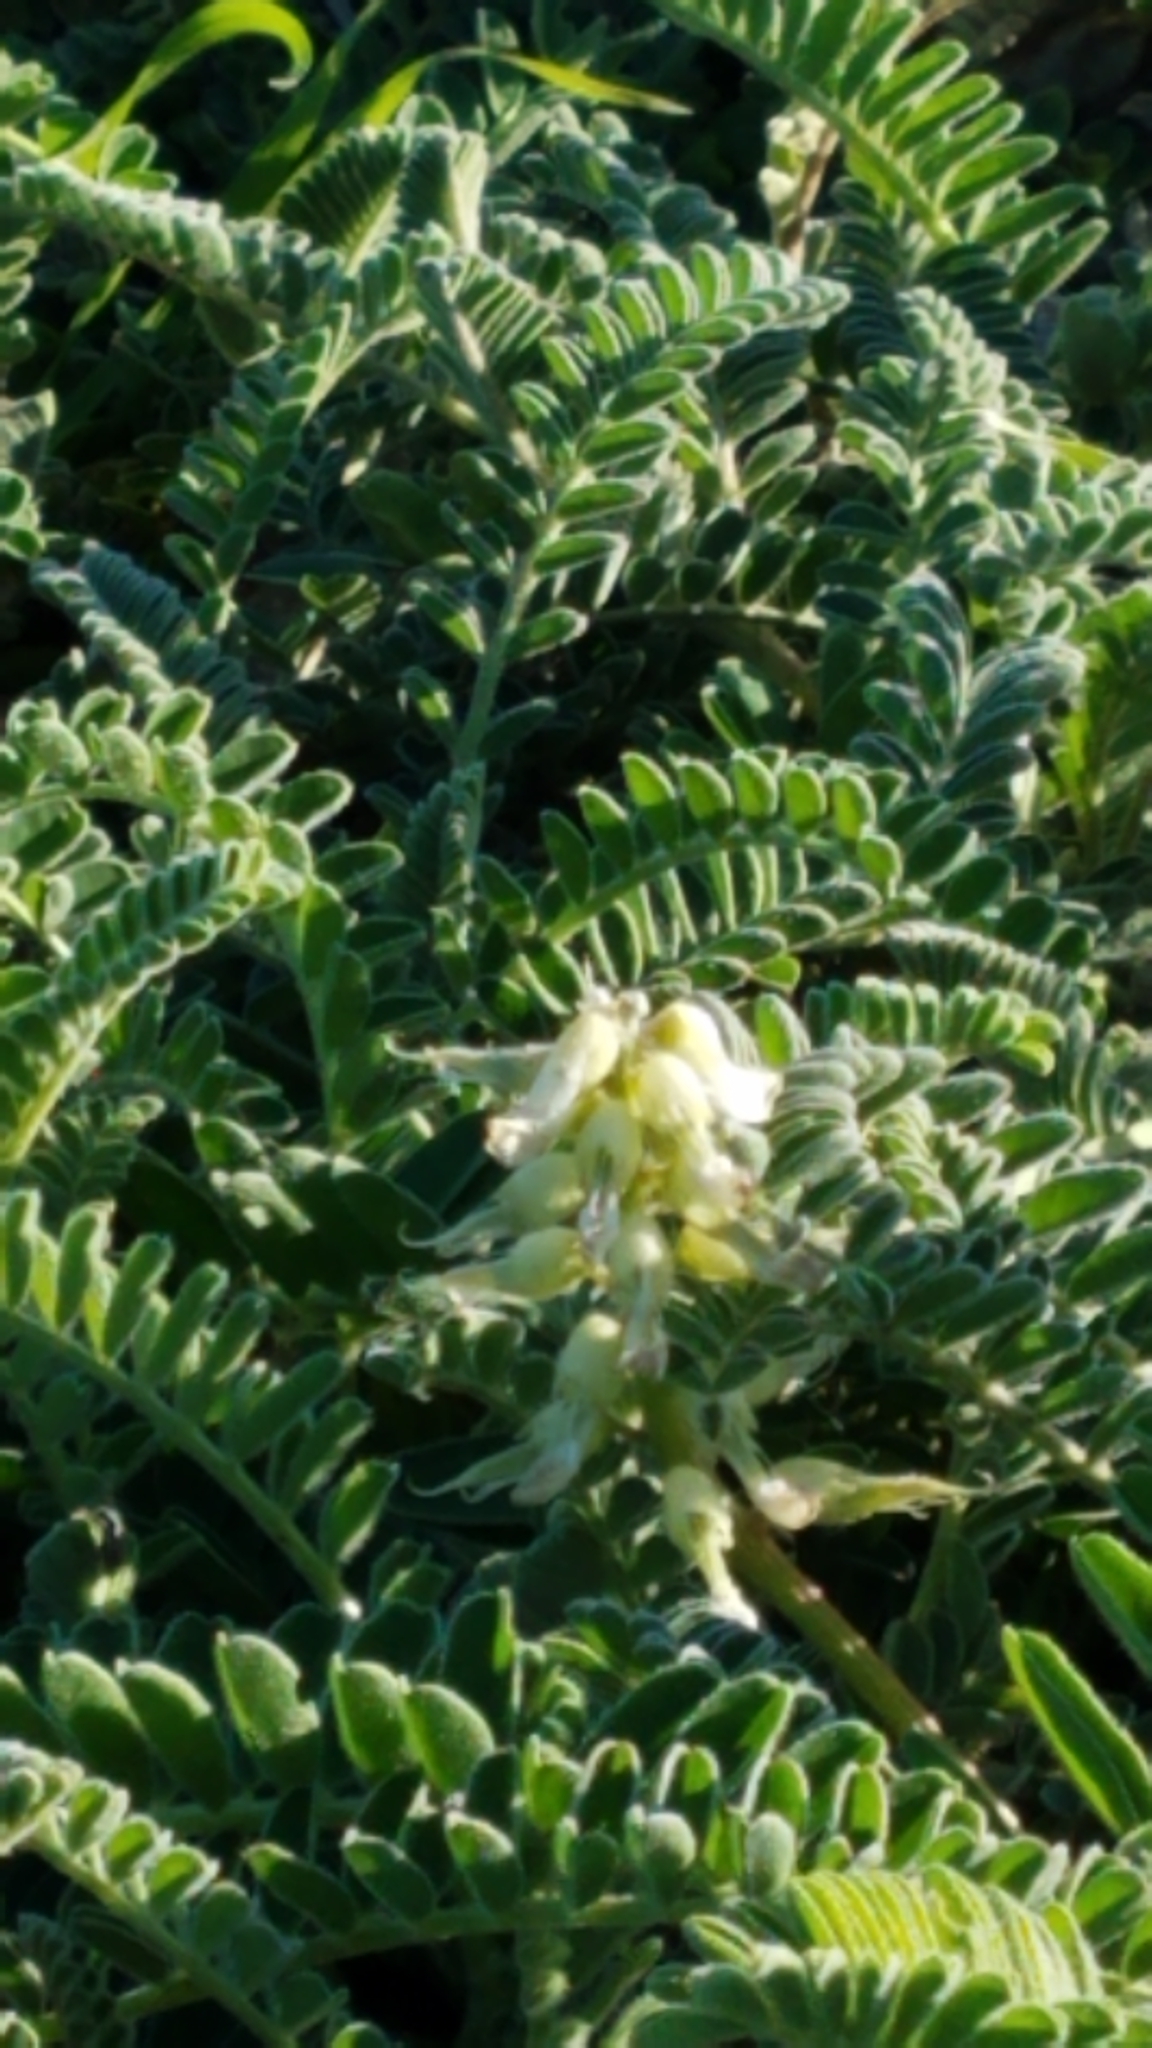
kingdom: Plantae
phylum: Tracheophyta
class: Magnoliopsida
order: Fabales
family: Fabaceae
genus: Astragalus
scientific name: Astragalus nuttallii
